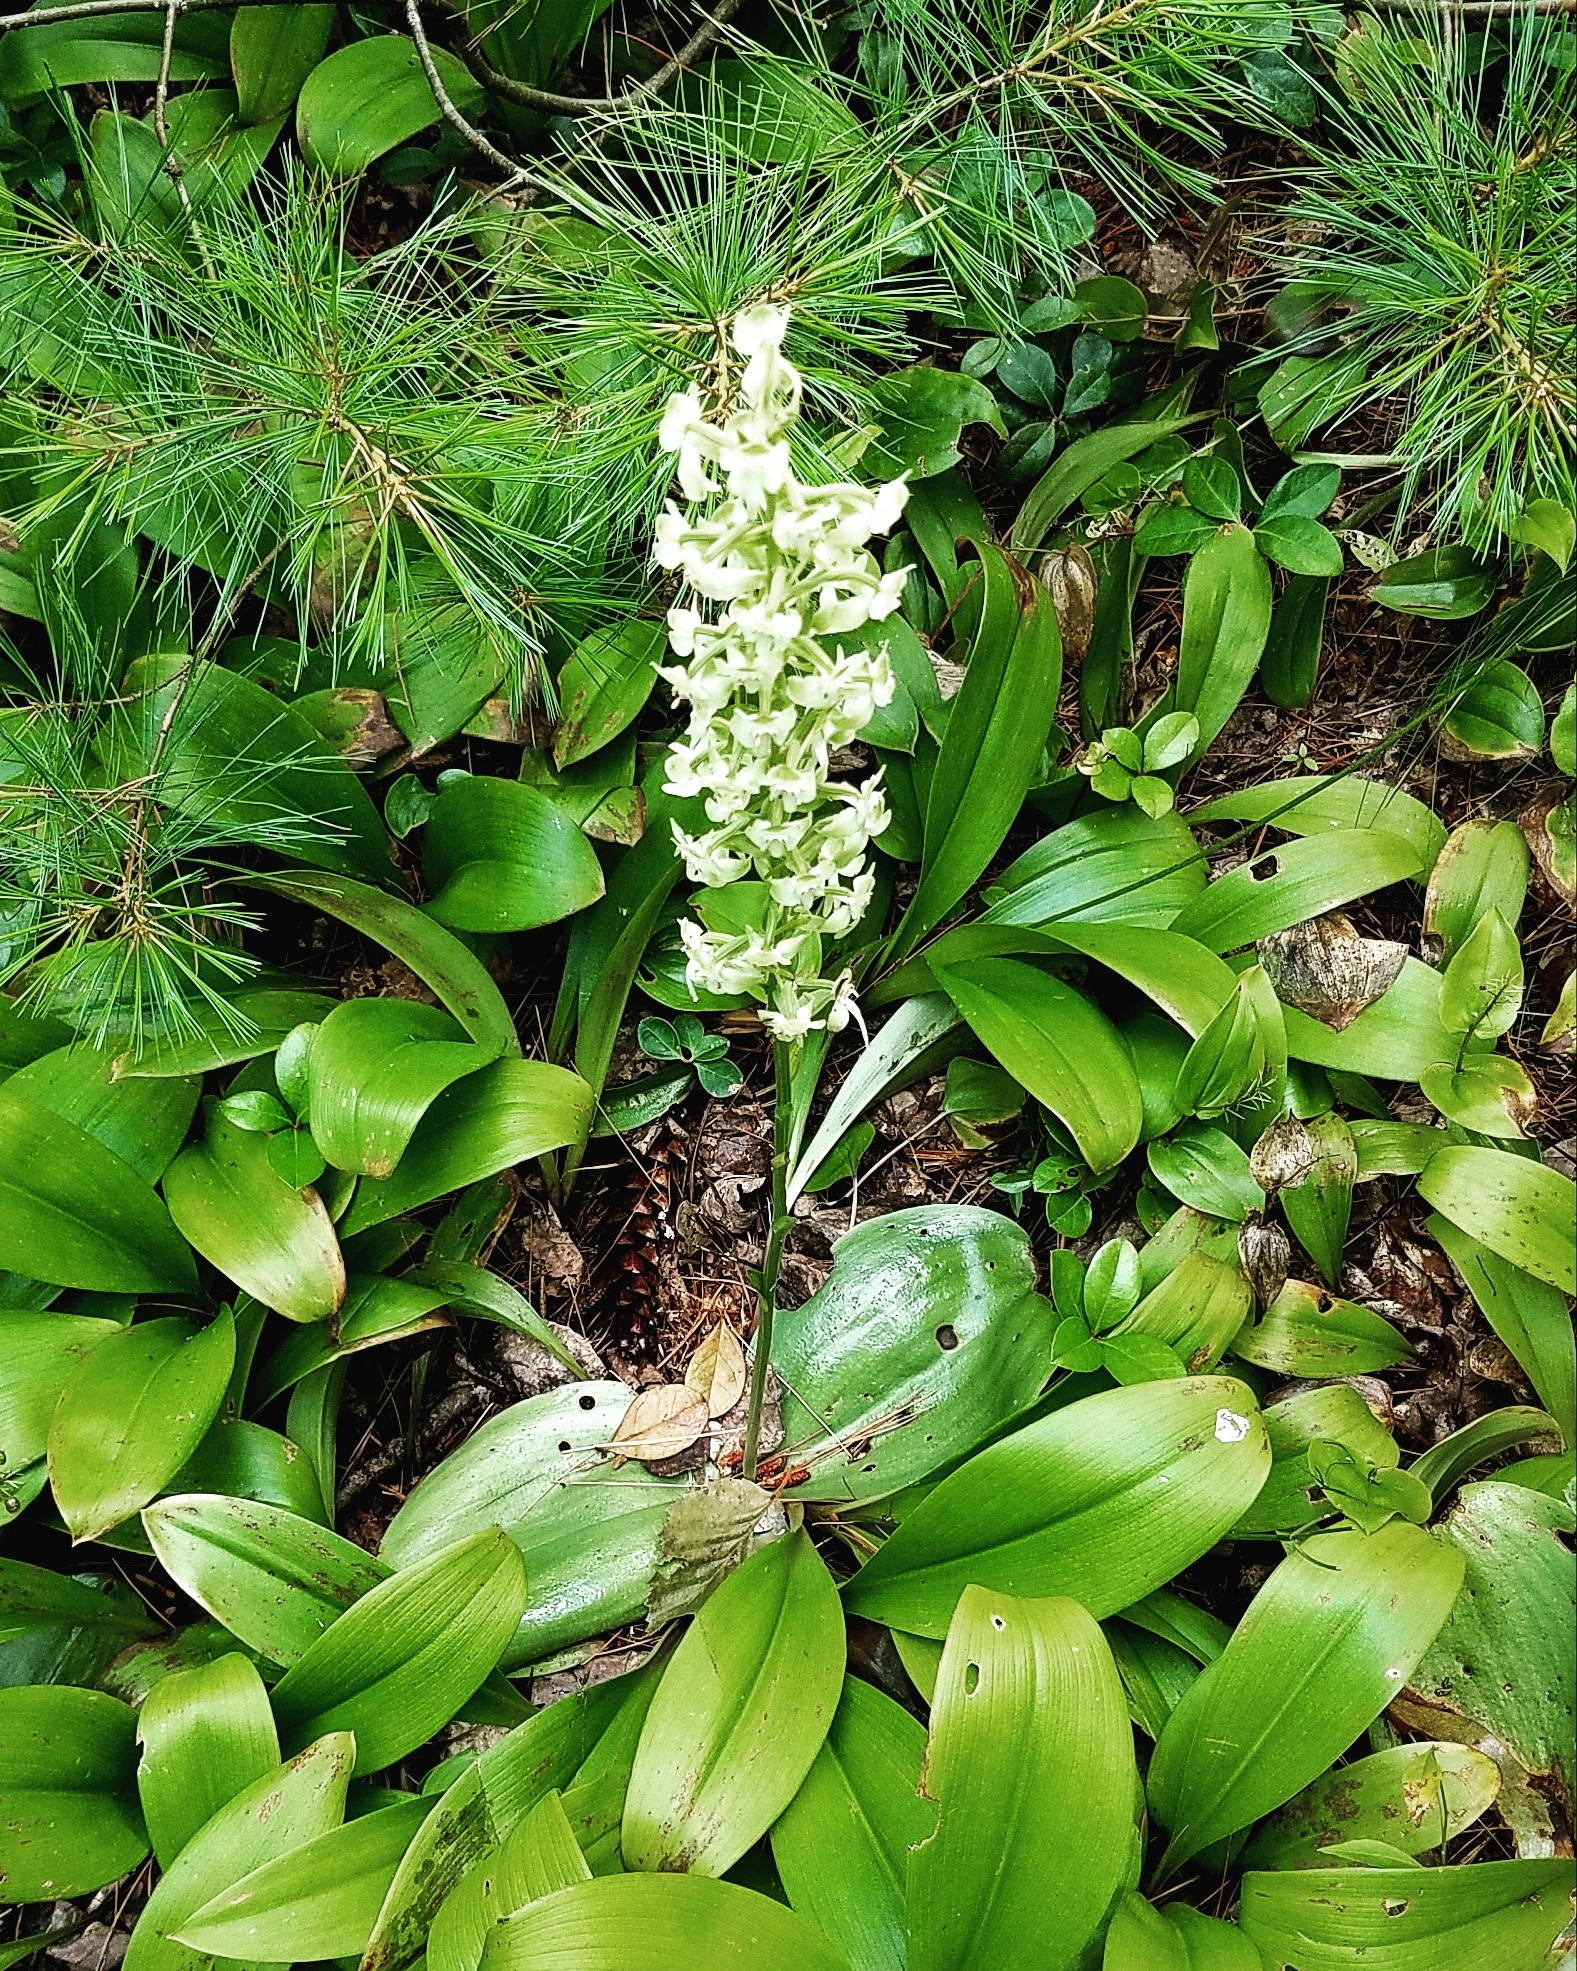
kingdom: Plantae
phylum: Tracheophyta
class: Liliopsida
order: Asparagales
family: Orchidaceae
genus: Platanthera
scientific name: Platanthera orbiculata
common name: Large round-leaved orchid
